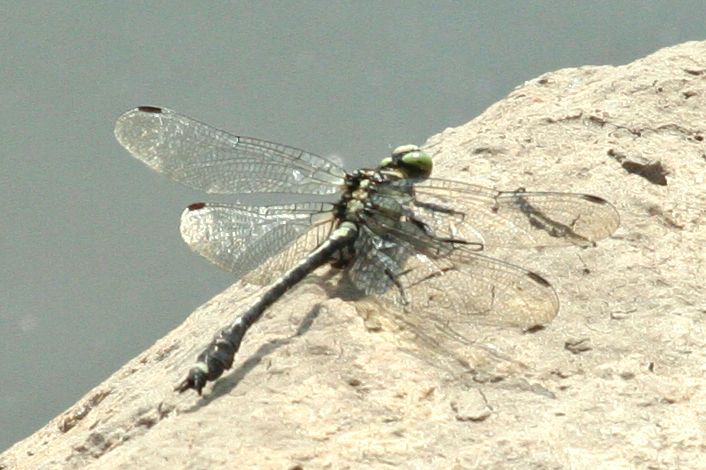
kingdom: Animalia
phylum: Arthropoda
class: Insecta
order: Odonata
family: Gomphidae
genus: Asiagomphus
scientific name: Asiagomphus melanopsoides
